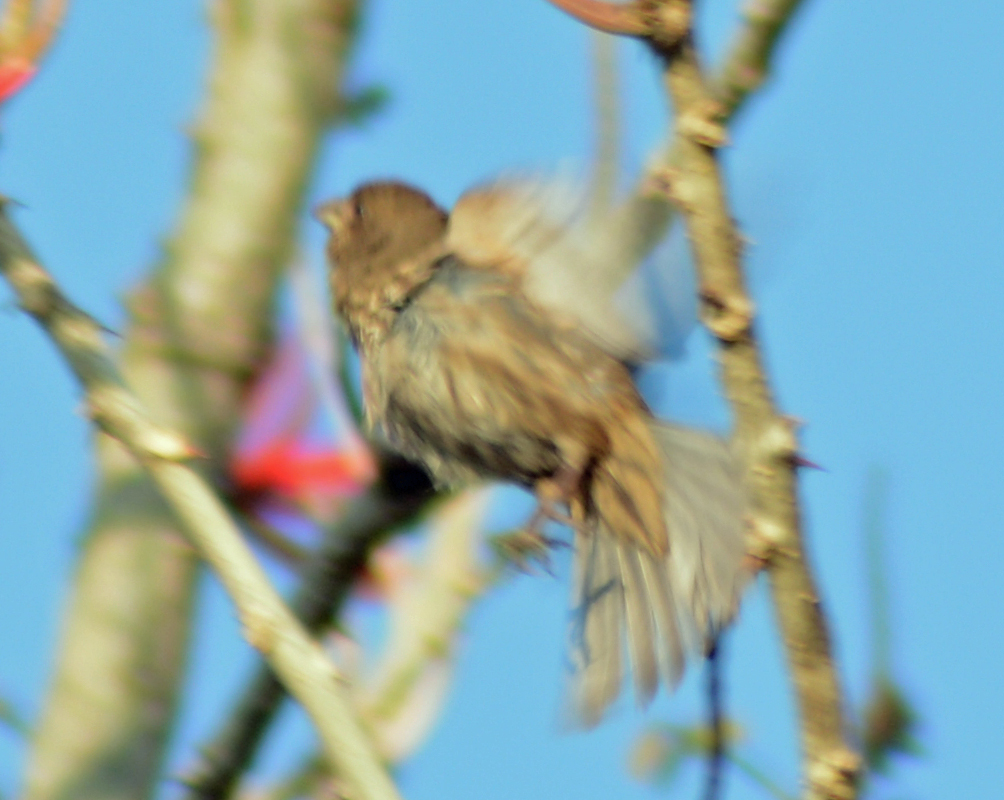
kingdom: Animalia
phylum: Chordata
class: Aves
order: Passeriformes
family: Fringillidae
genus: Haemorhous
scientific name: Haemorhous mexicanus
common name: House finch
